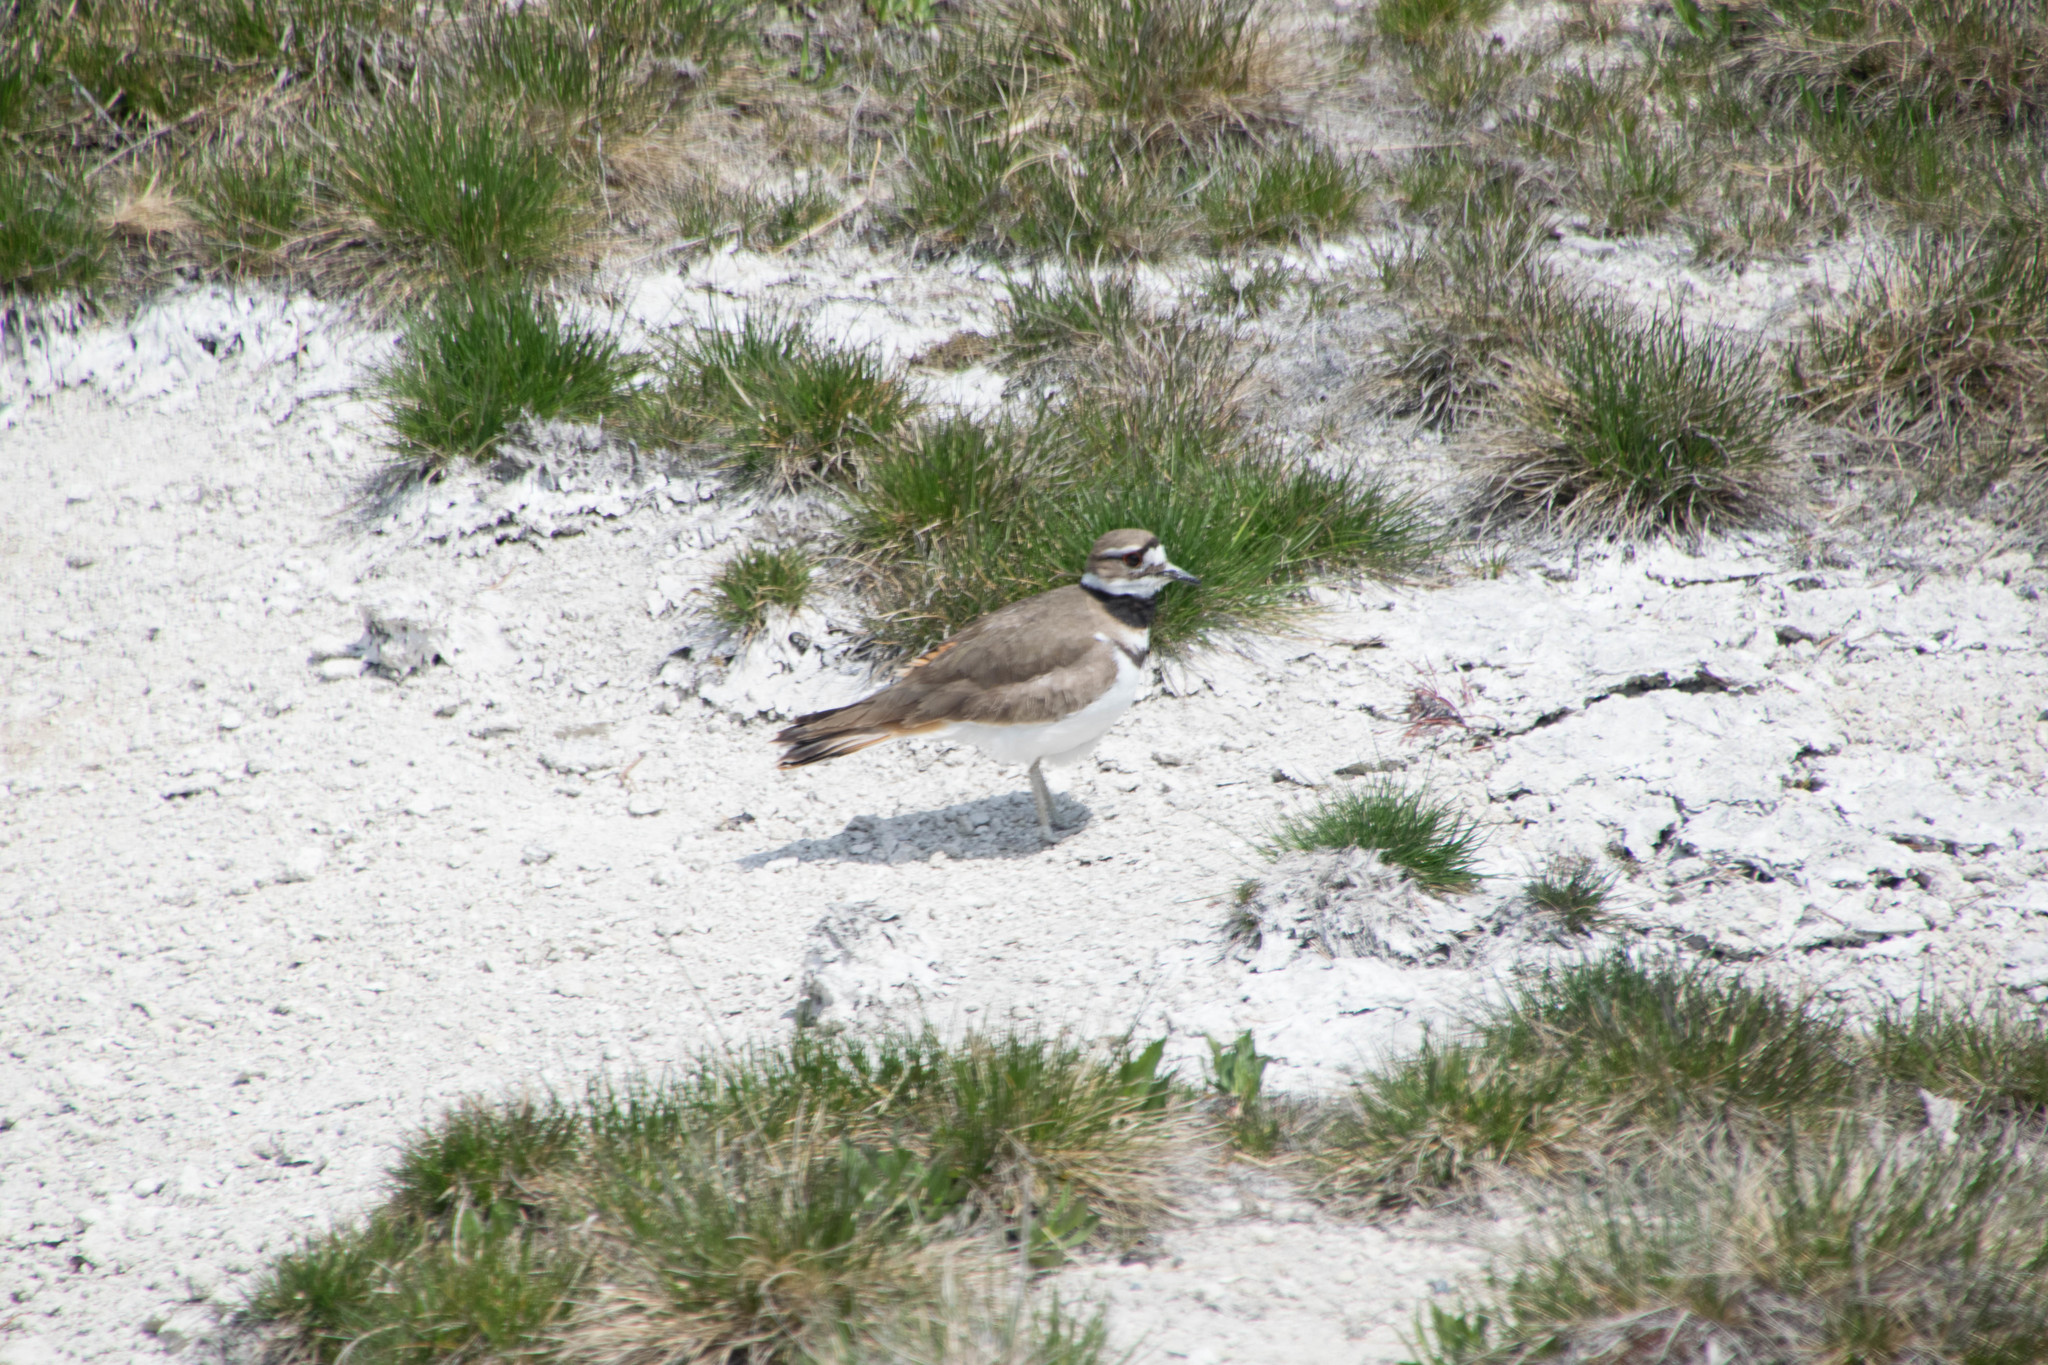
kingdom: Animalia
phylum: Chordata
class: Aves
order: Charadriiformes
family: Charadriidae
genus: Charadrius
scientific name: Charadrius vociferus
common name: Killdeer
